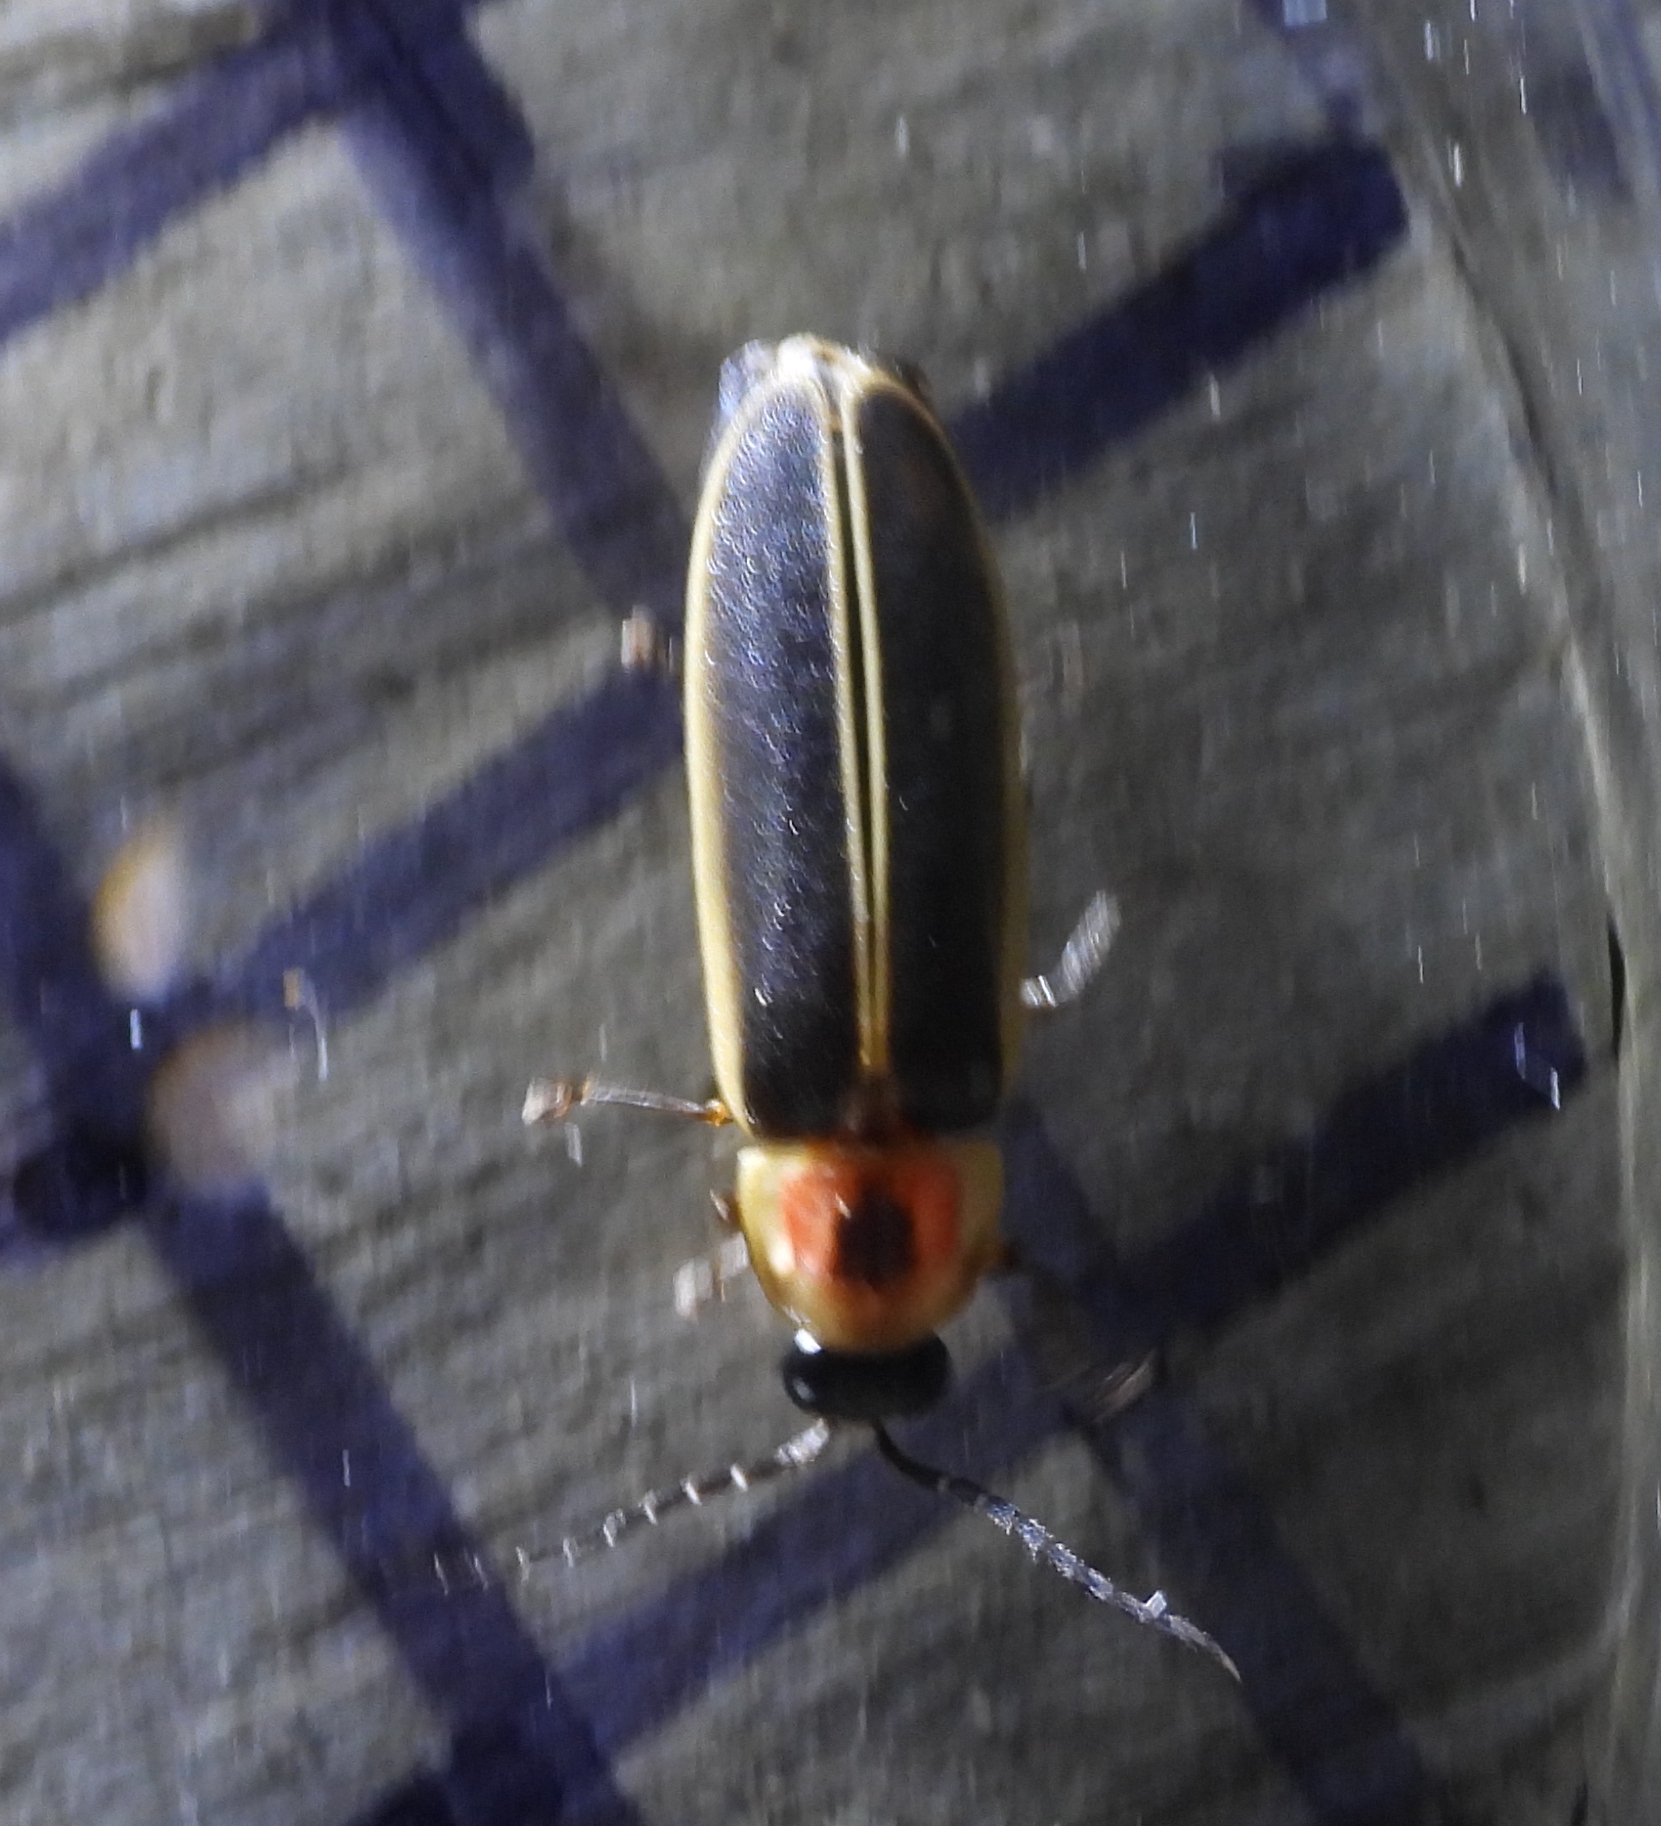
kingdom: Animalia
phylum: Arthropoda
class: Insecta
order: Coleoptera
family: Lampyridae
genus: Photinus
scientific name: Photinus pyralis
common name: Big dipper firefly
